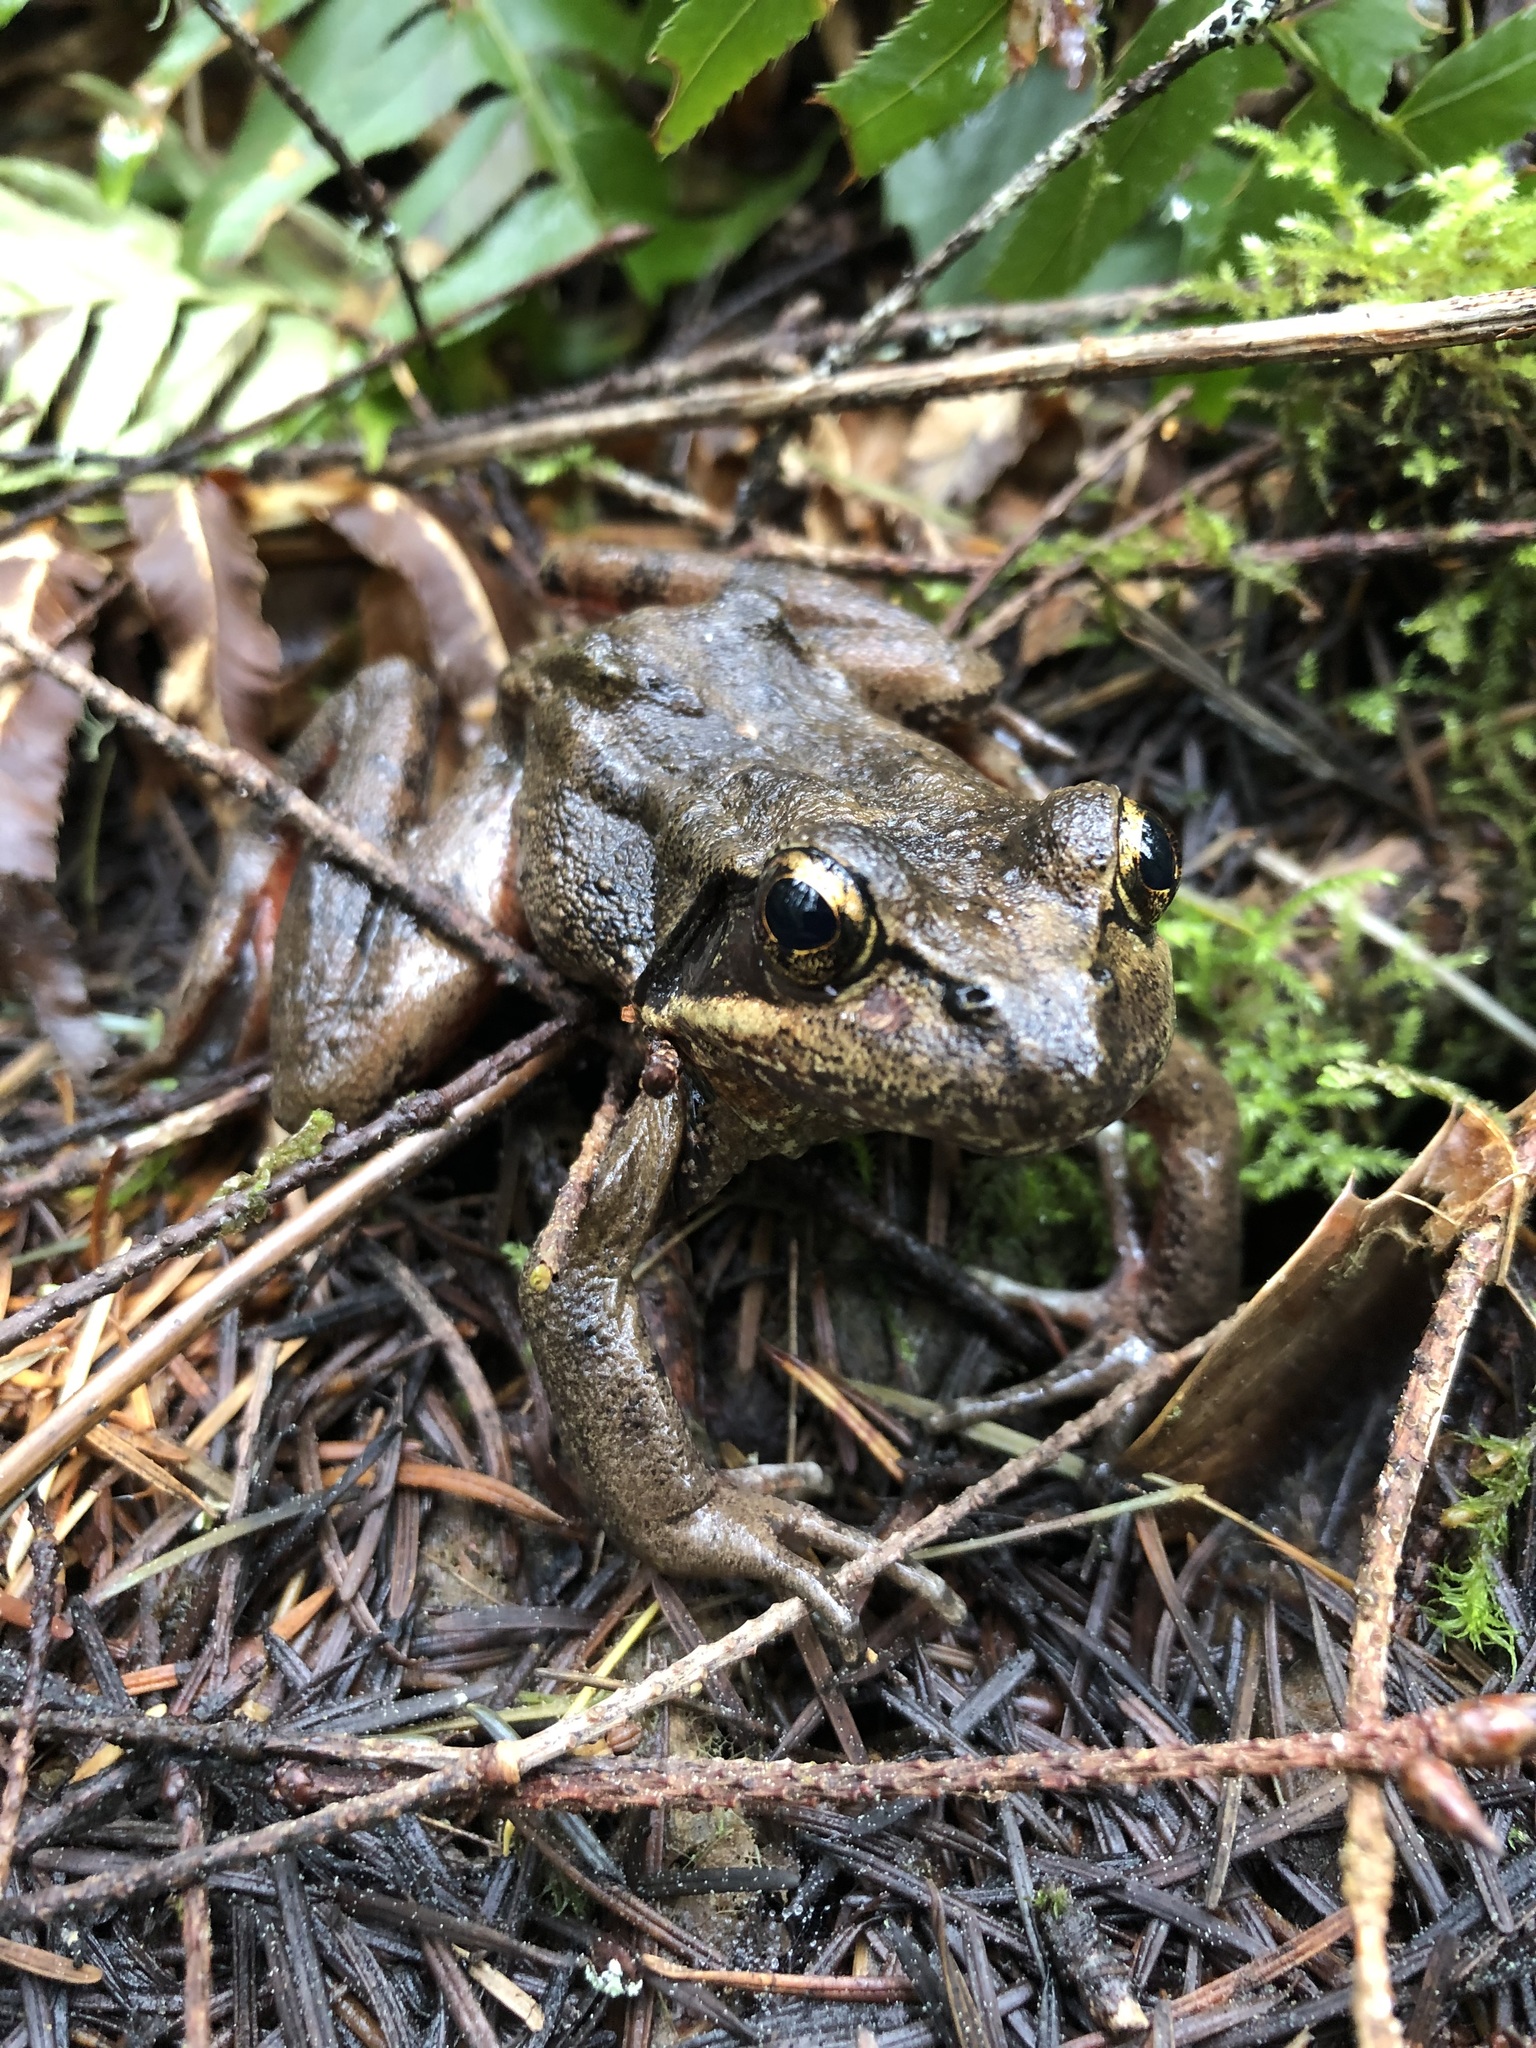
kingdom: Animalia
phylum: Chordata
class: Amphibia
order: Anura
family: Ranidae
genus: Rana
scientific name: Rana aurora
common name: Red-legged frog
